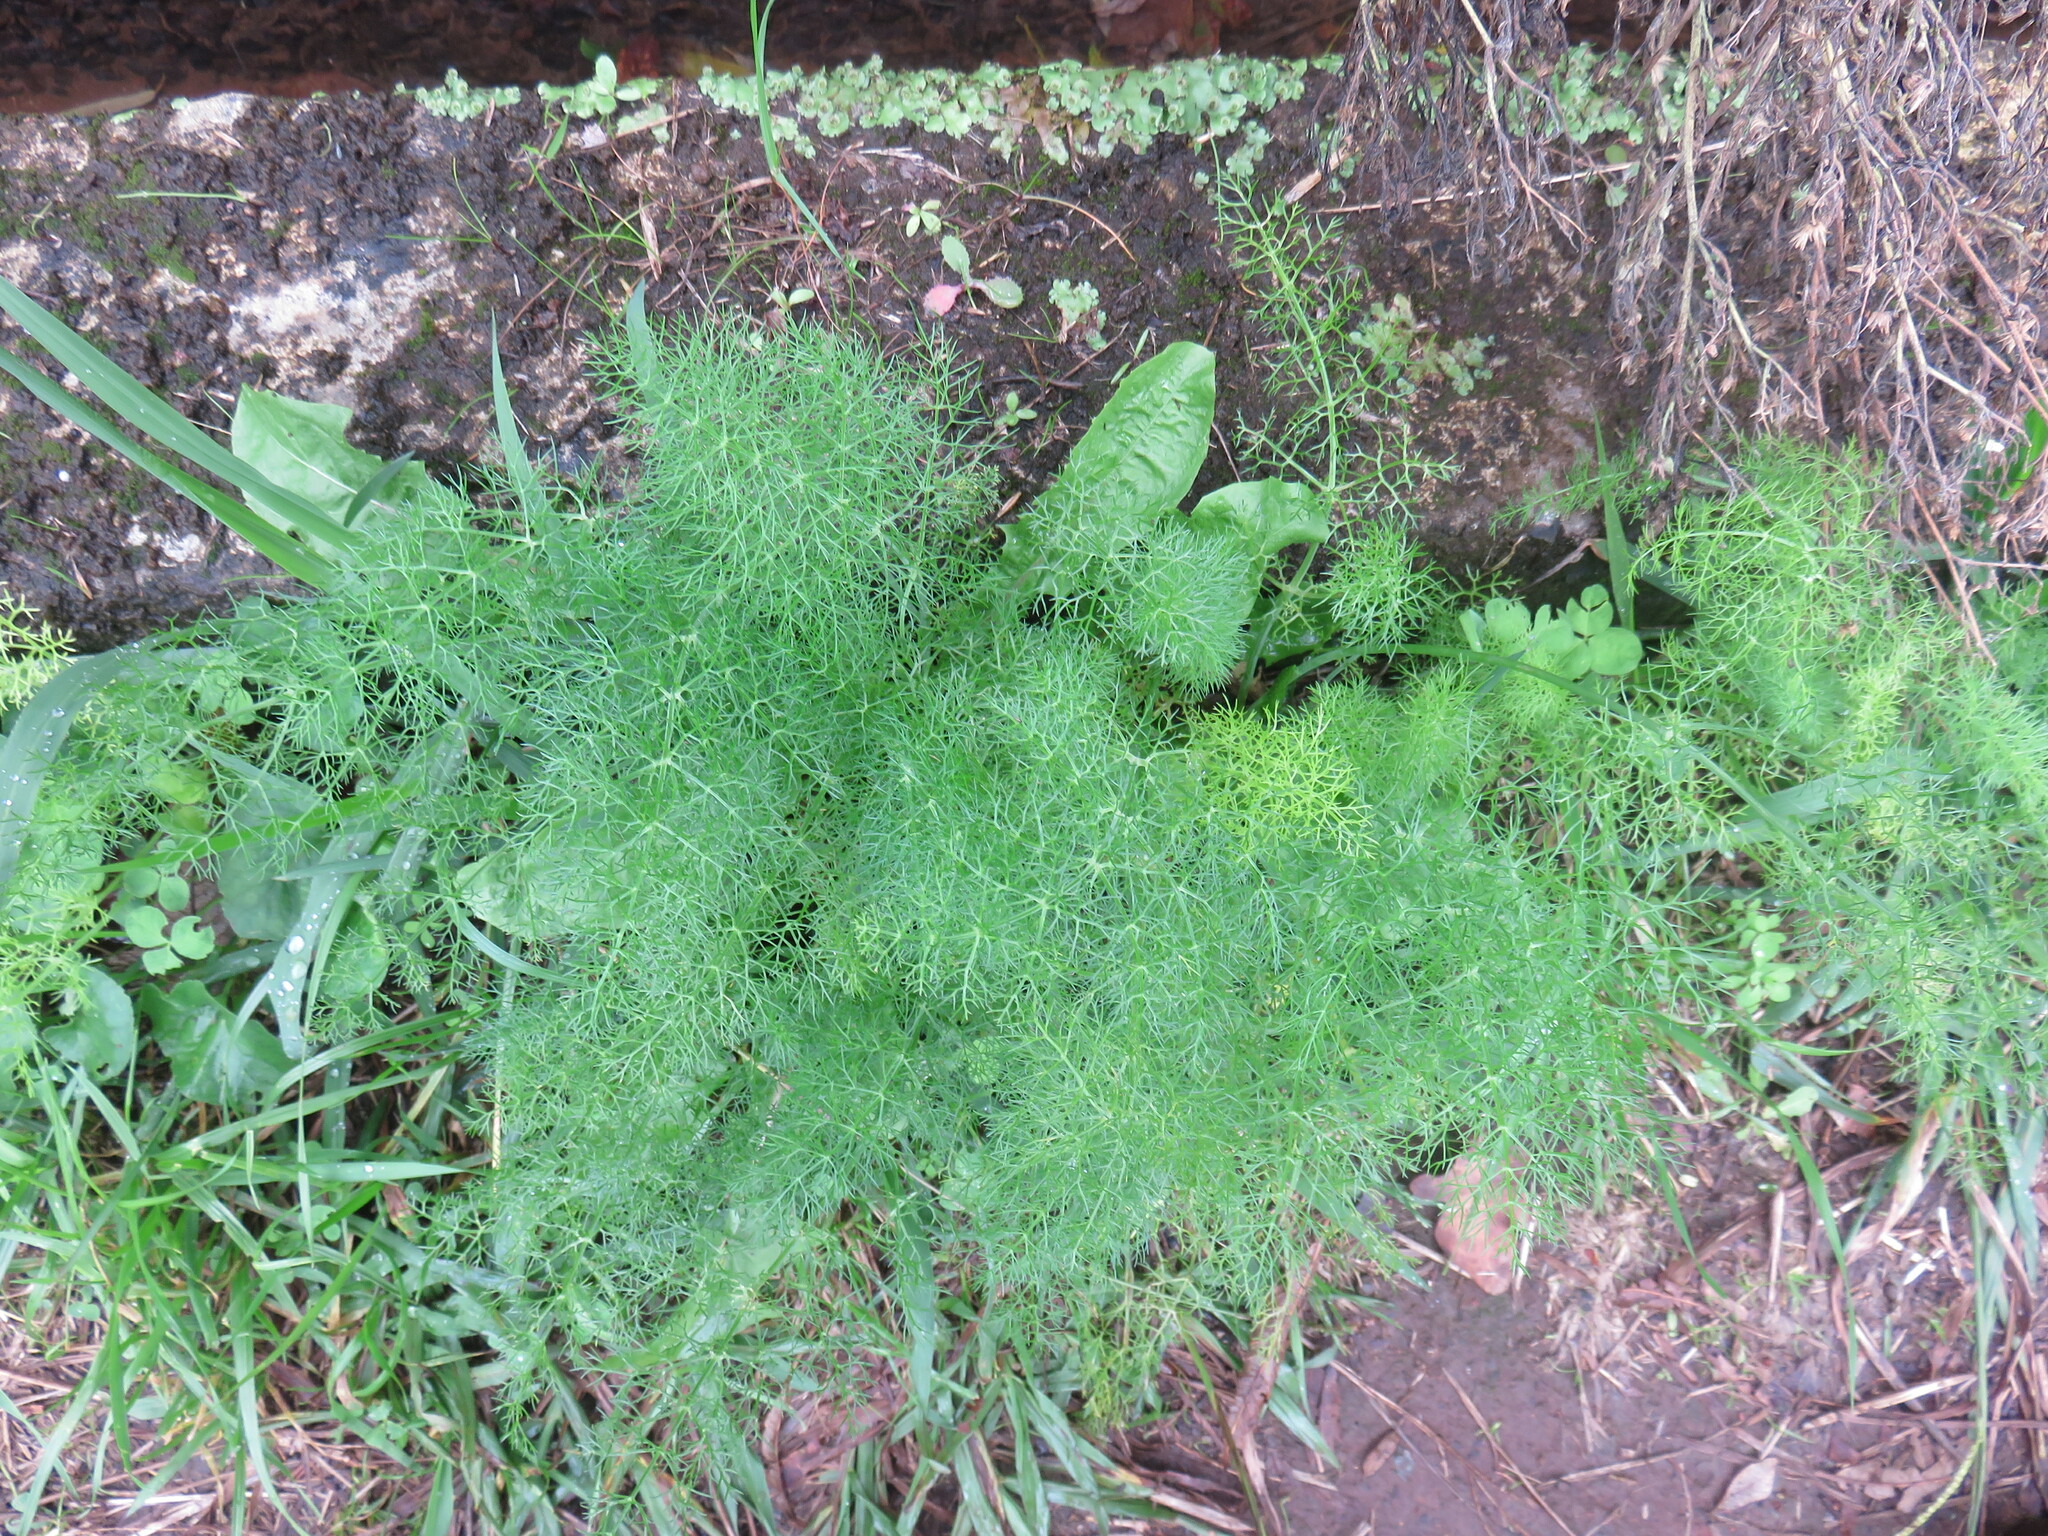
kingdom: Plantae
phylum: Tracheophyta
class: Magnoliopsida
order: Apiales
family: Apiaceae
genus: Foeniculum
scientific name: Foeniculum vulgare
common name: Fennel
